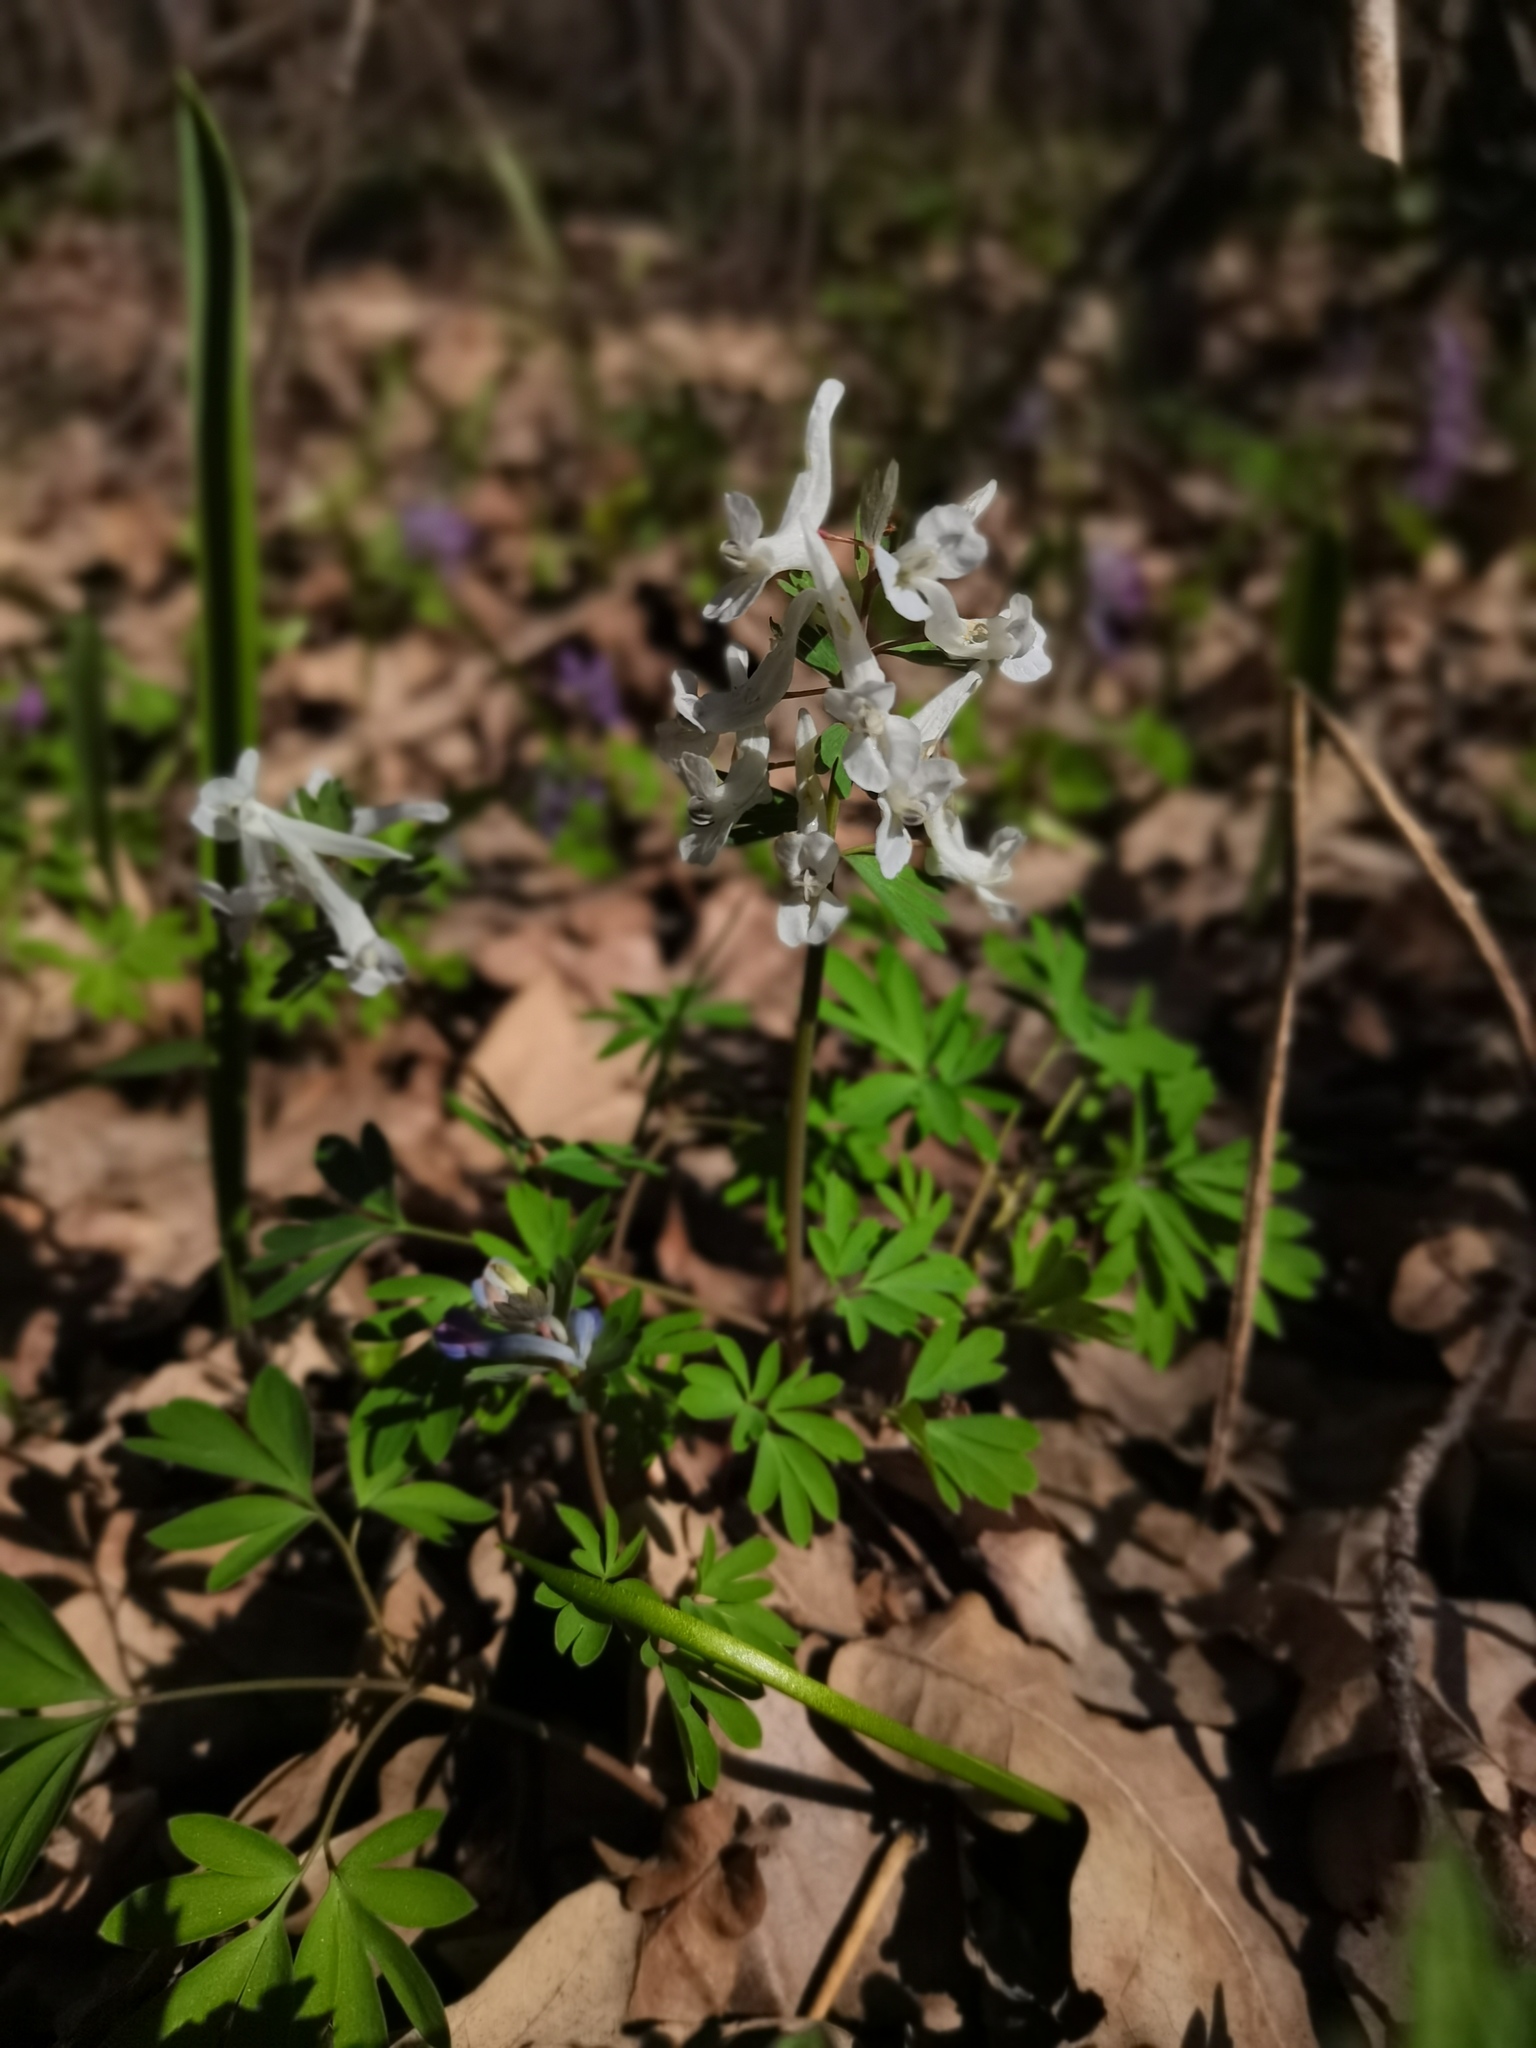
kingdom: Plantae
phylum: Tracheophyta
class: Magnoliopsida
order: Ranunculales
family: Papaveraceae
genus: Corydalis
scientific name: Corydalis solida
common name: Bird-in-a-bush
